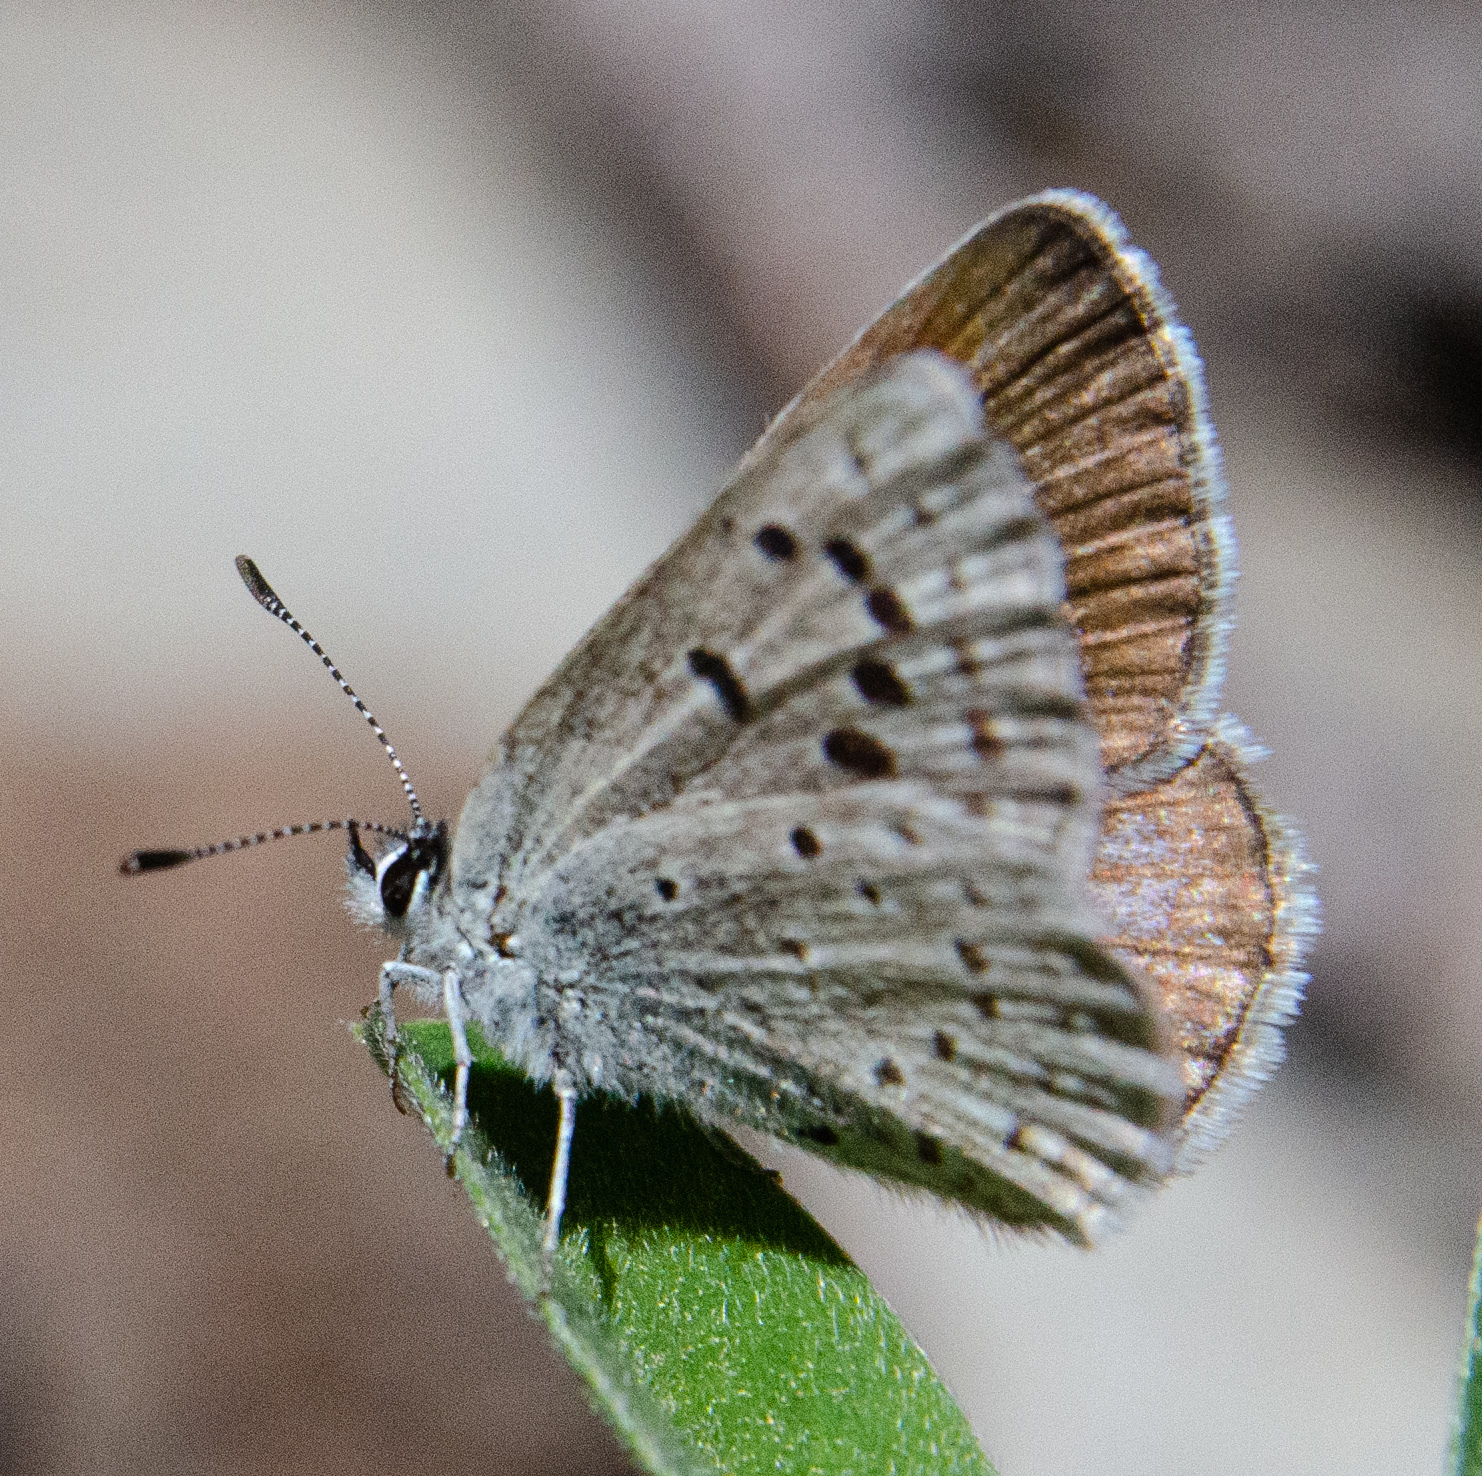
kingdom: Animalia
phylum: Arthropoda
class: Insecta
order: Lepidoptera
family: Lycaenidae
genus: Icaricia
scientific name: Icaricia icarioides
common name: Boisduval's blue
